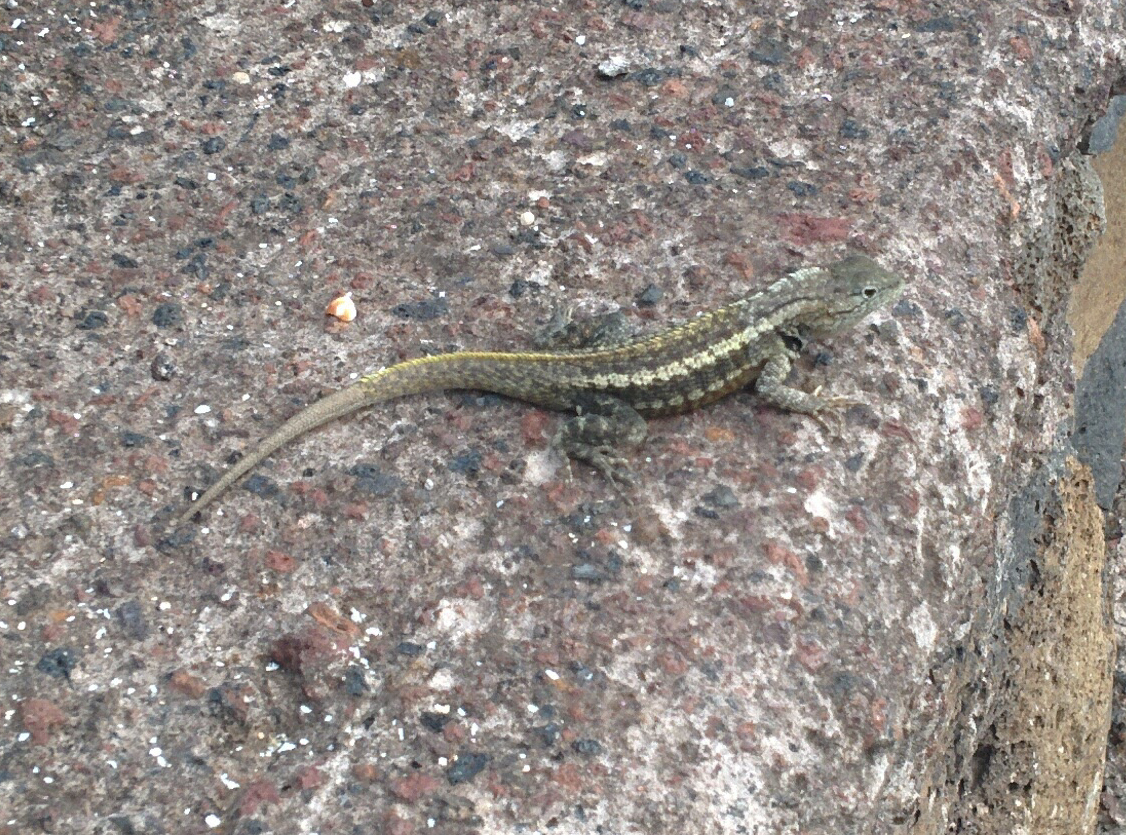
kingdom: Animalia
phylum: Chordata
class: Squamata
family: Tropiduridae
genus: Microlophus
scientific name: Microlophus bivittatus
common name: San cristobal lava lizard
